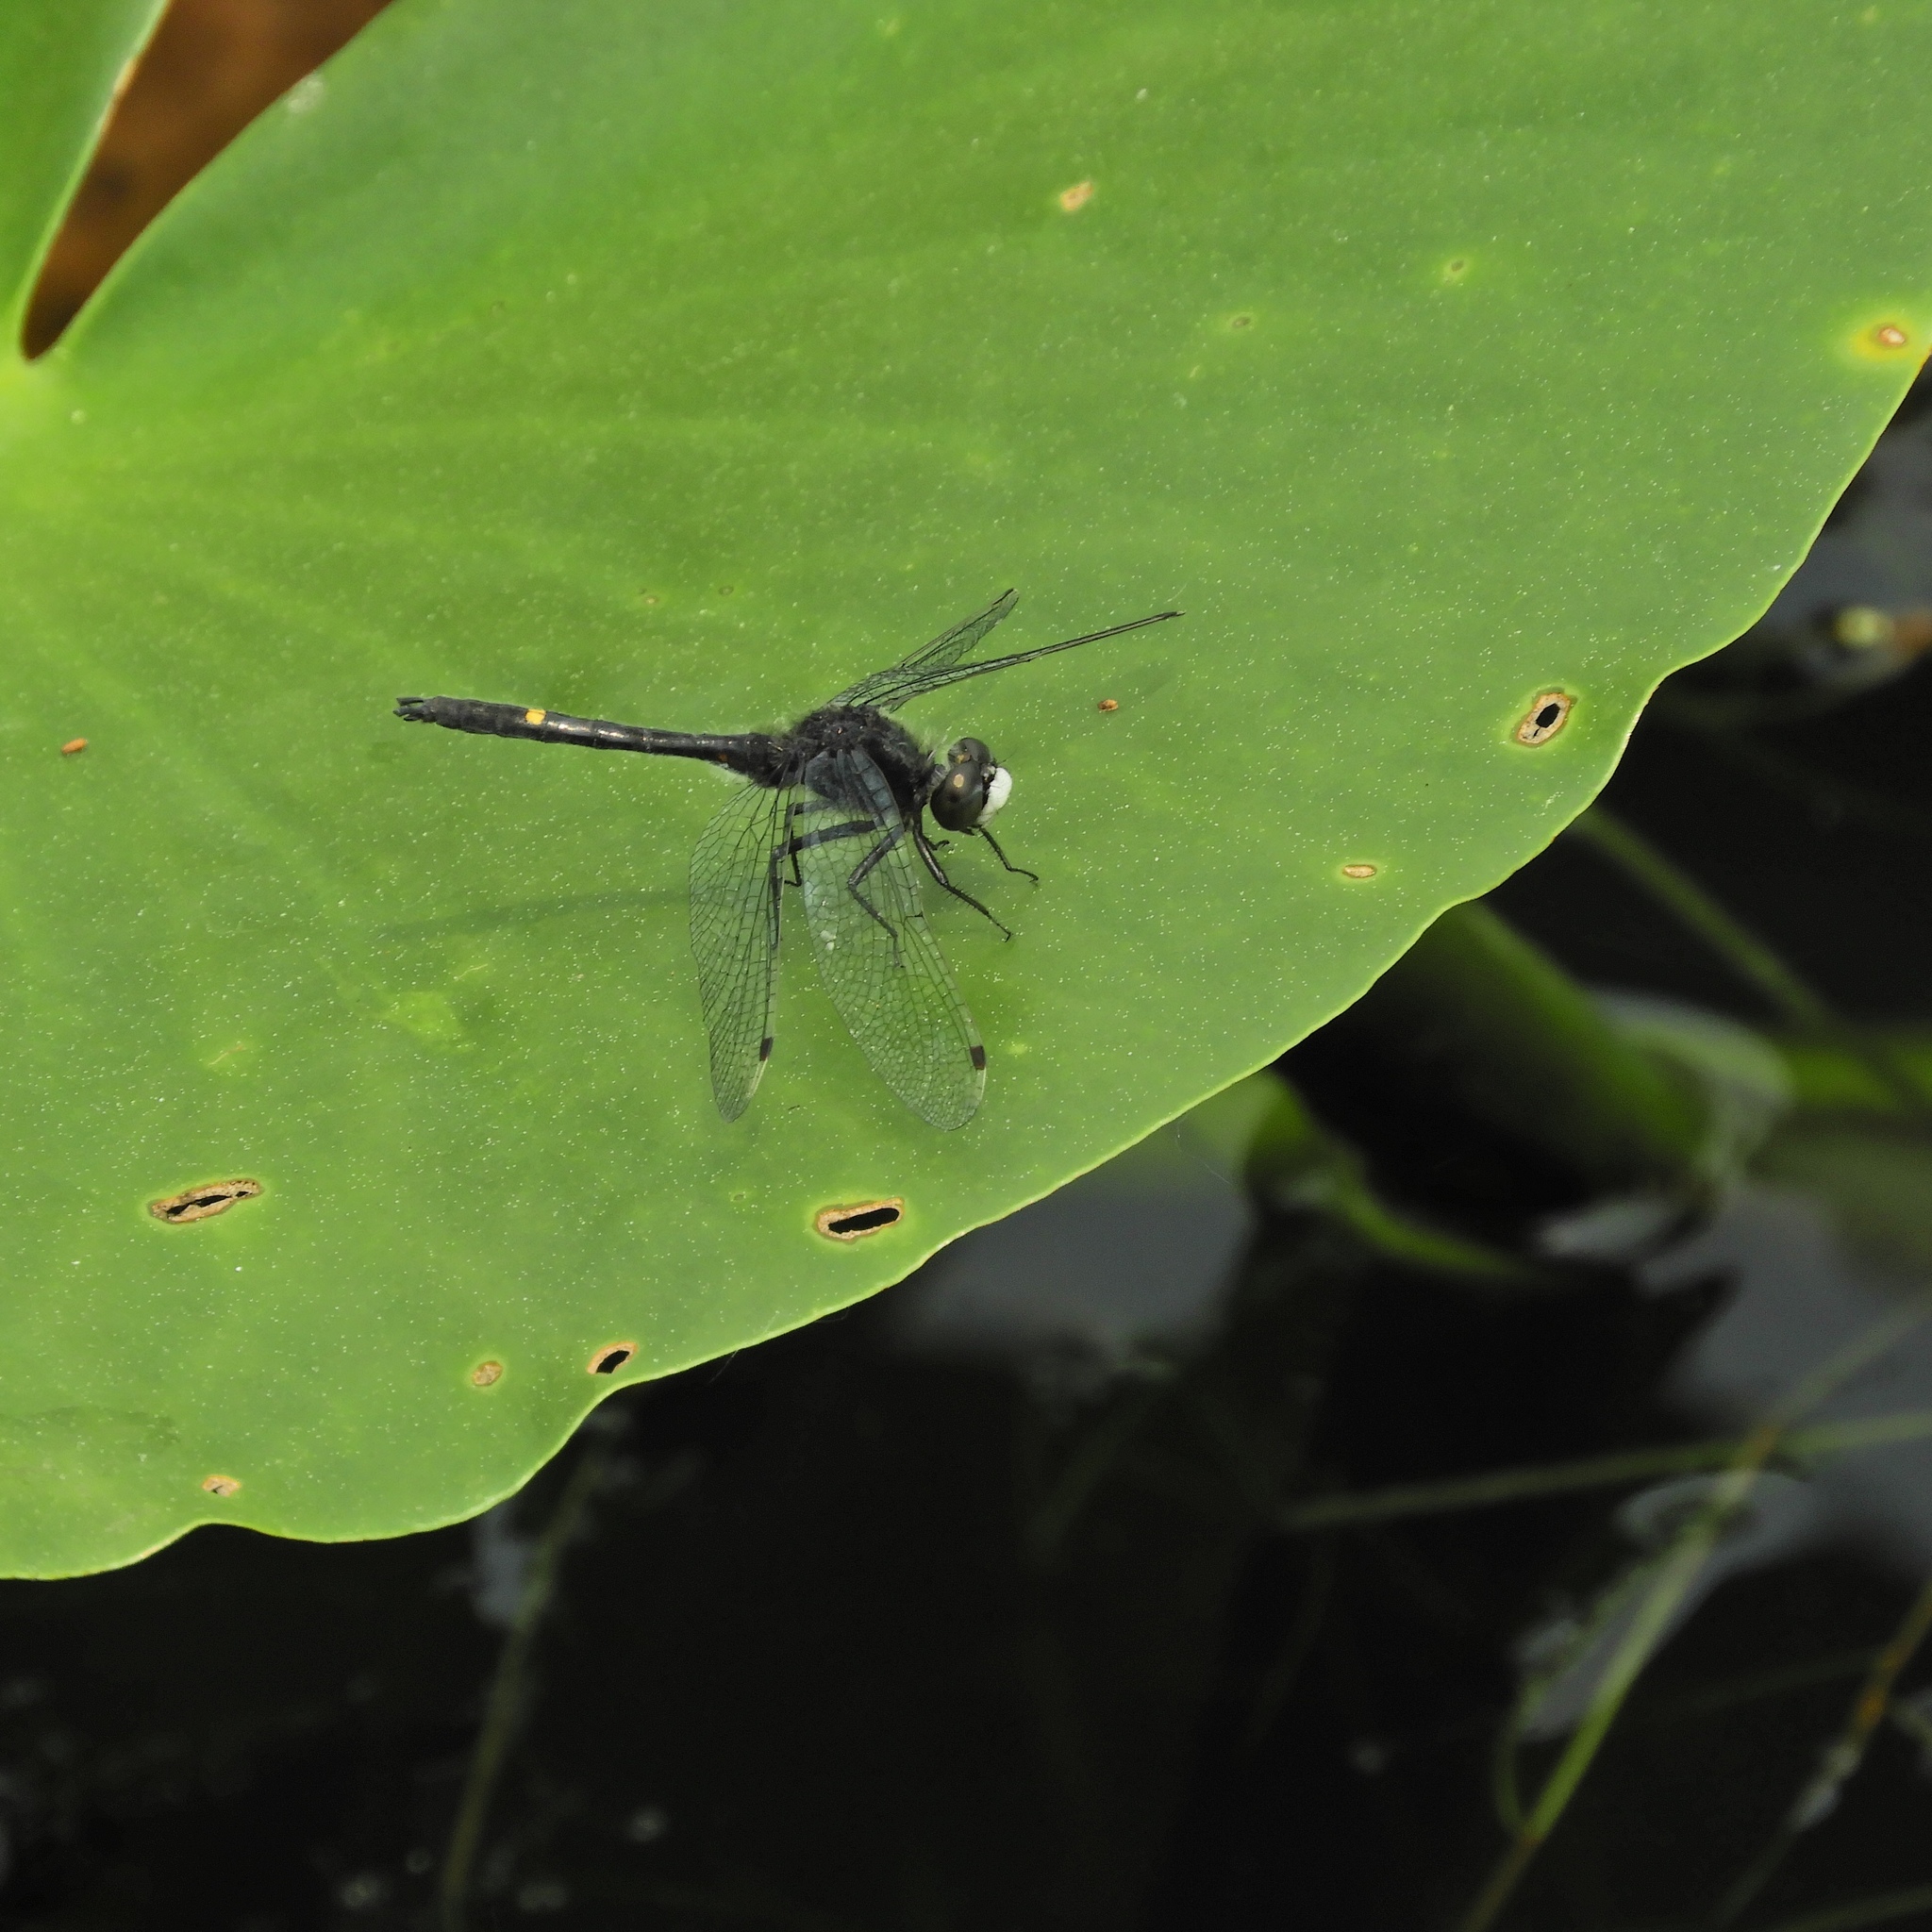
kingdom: Animalia
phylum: Arthropoda
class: Insecta
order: Odonata
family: Libellulidae
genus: Leucorrhinia
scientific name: Leucorrhinia intacta
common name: Dot-tailed whiteface
